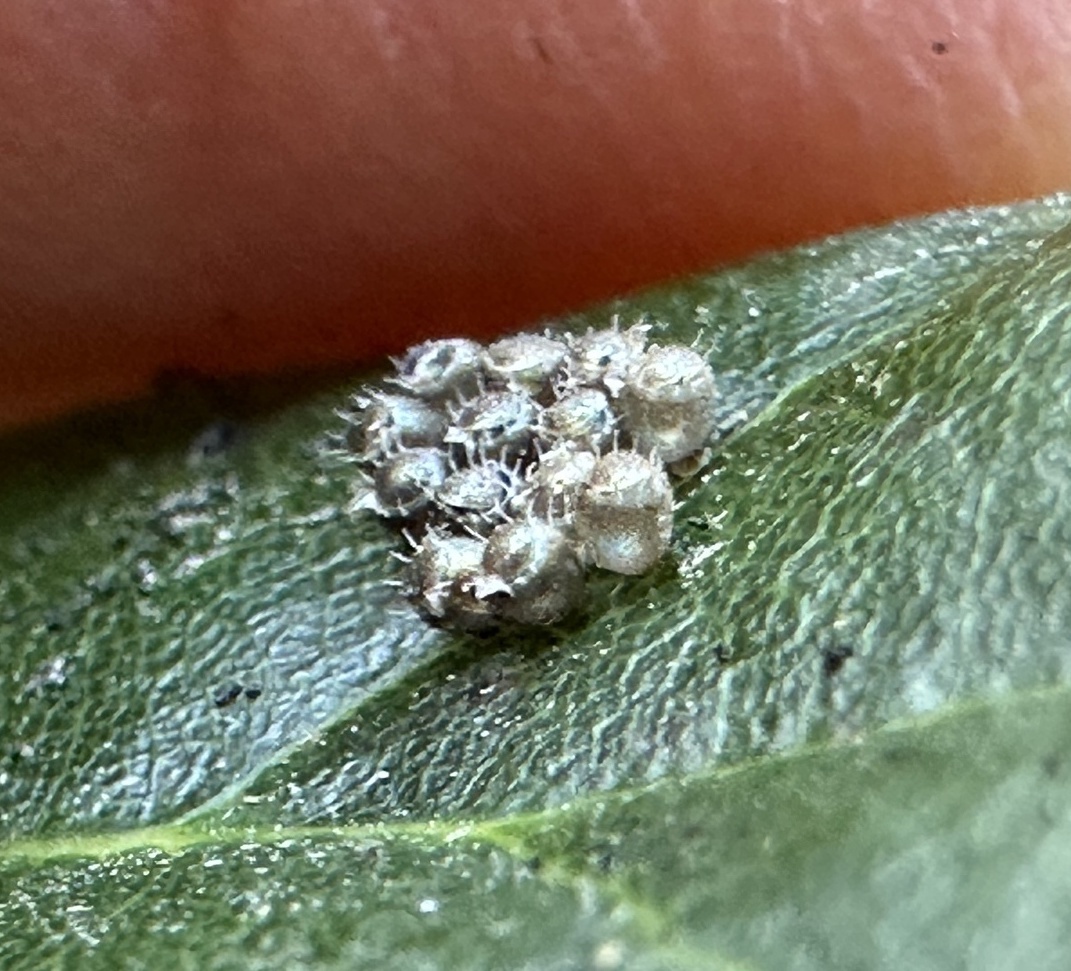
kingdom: Animalia
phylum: Arthropoda
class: Insecta
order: Hemiptera
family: Pentatomidae
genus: Podisus
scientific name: Podisus maculiventris
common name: Spined soldier bug
